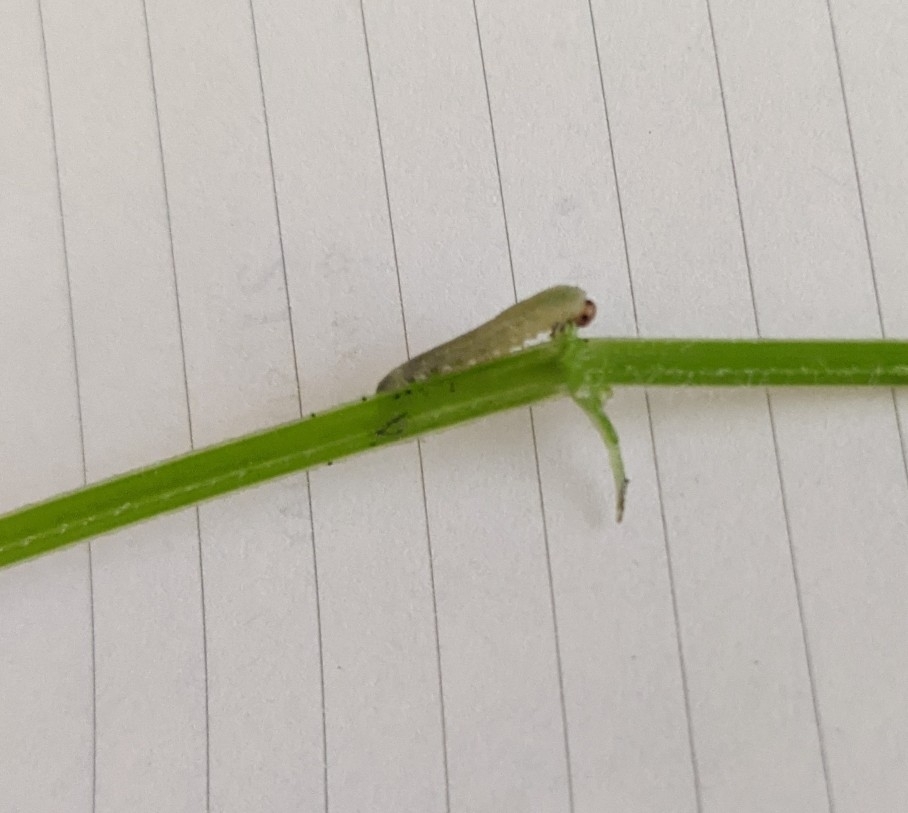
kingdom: Animalia
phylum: Arthropoda
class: Insecta
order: Hymenoptera
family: Tenthredinidae
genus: Halidamia
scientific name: Halidamia affinis
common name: Wasp
